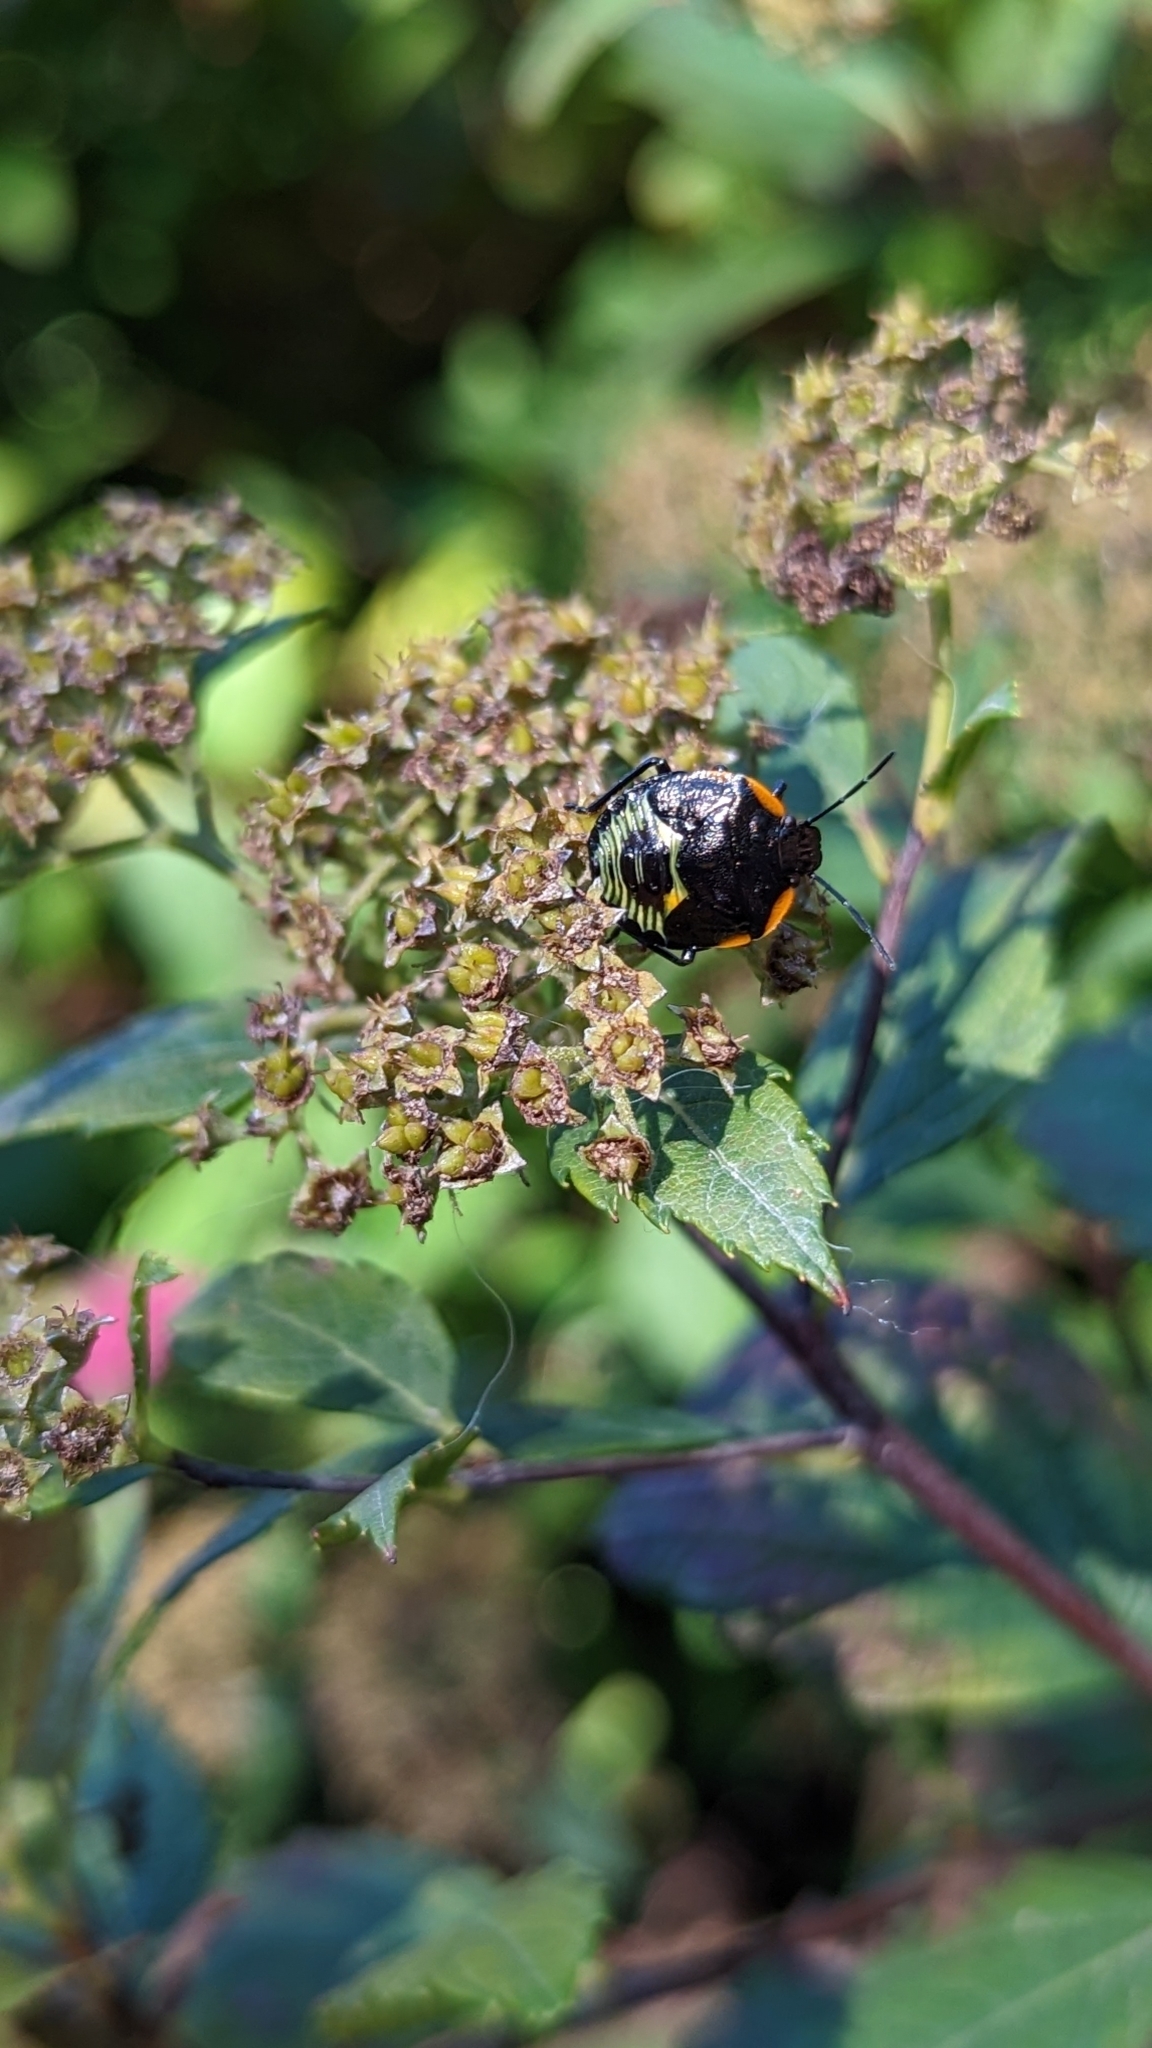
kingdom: Animalia
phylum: Arthropoda
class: Insecta
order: Hemiptera
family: Pentatomidae
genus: Chinavia
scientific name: Chinavia hilaris
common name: Green stink bug
